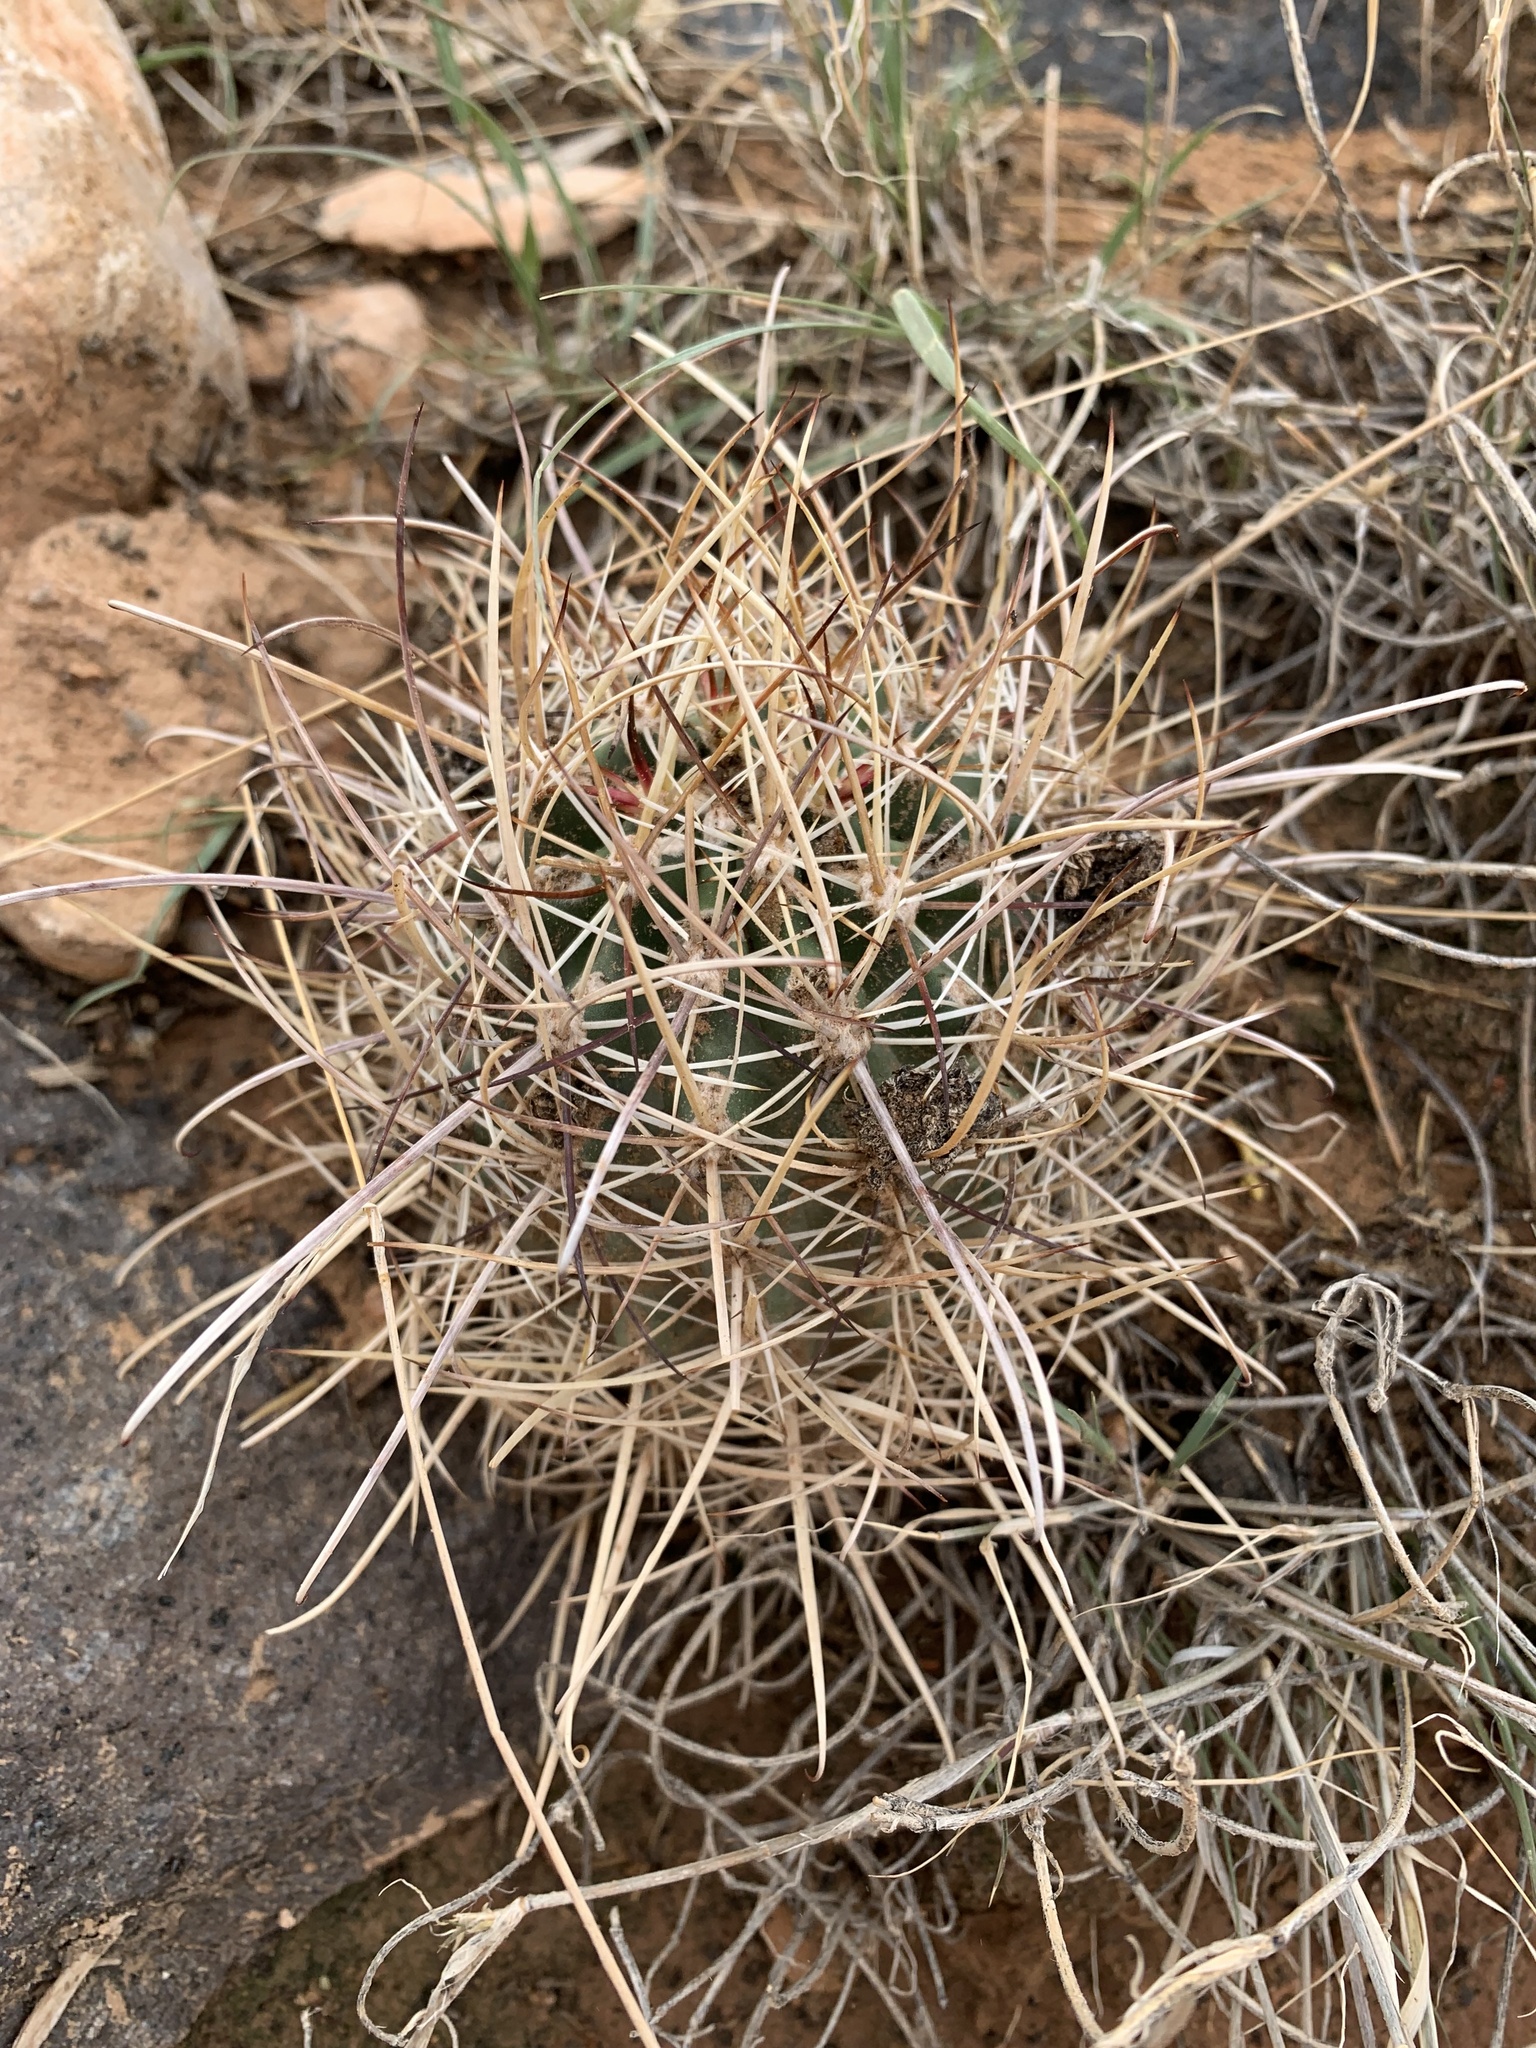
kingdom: Plantae
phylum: Tracheophyta
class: Magnoliopsida
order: Caryophyllales
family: Cactaceae
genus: Sclerocactus
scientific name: Sclerocactus parviflorus
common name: Small-flower fishhook cactus
